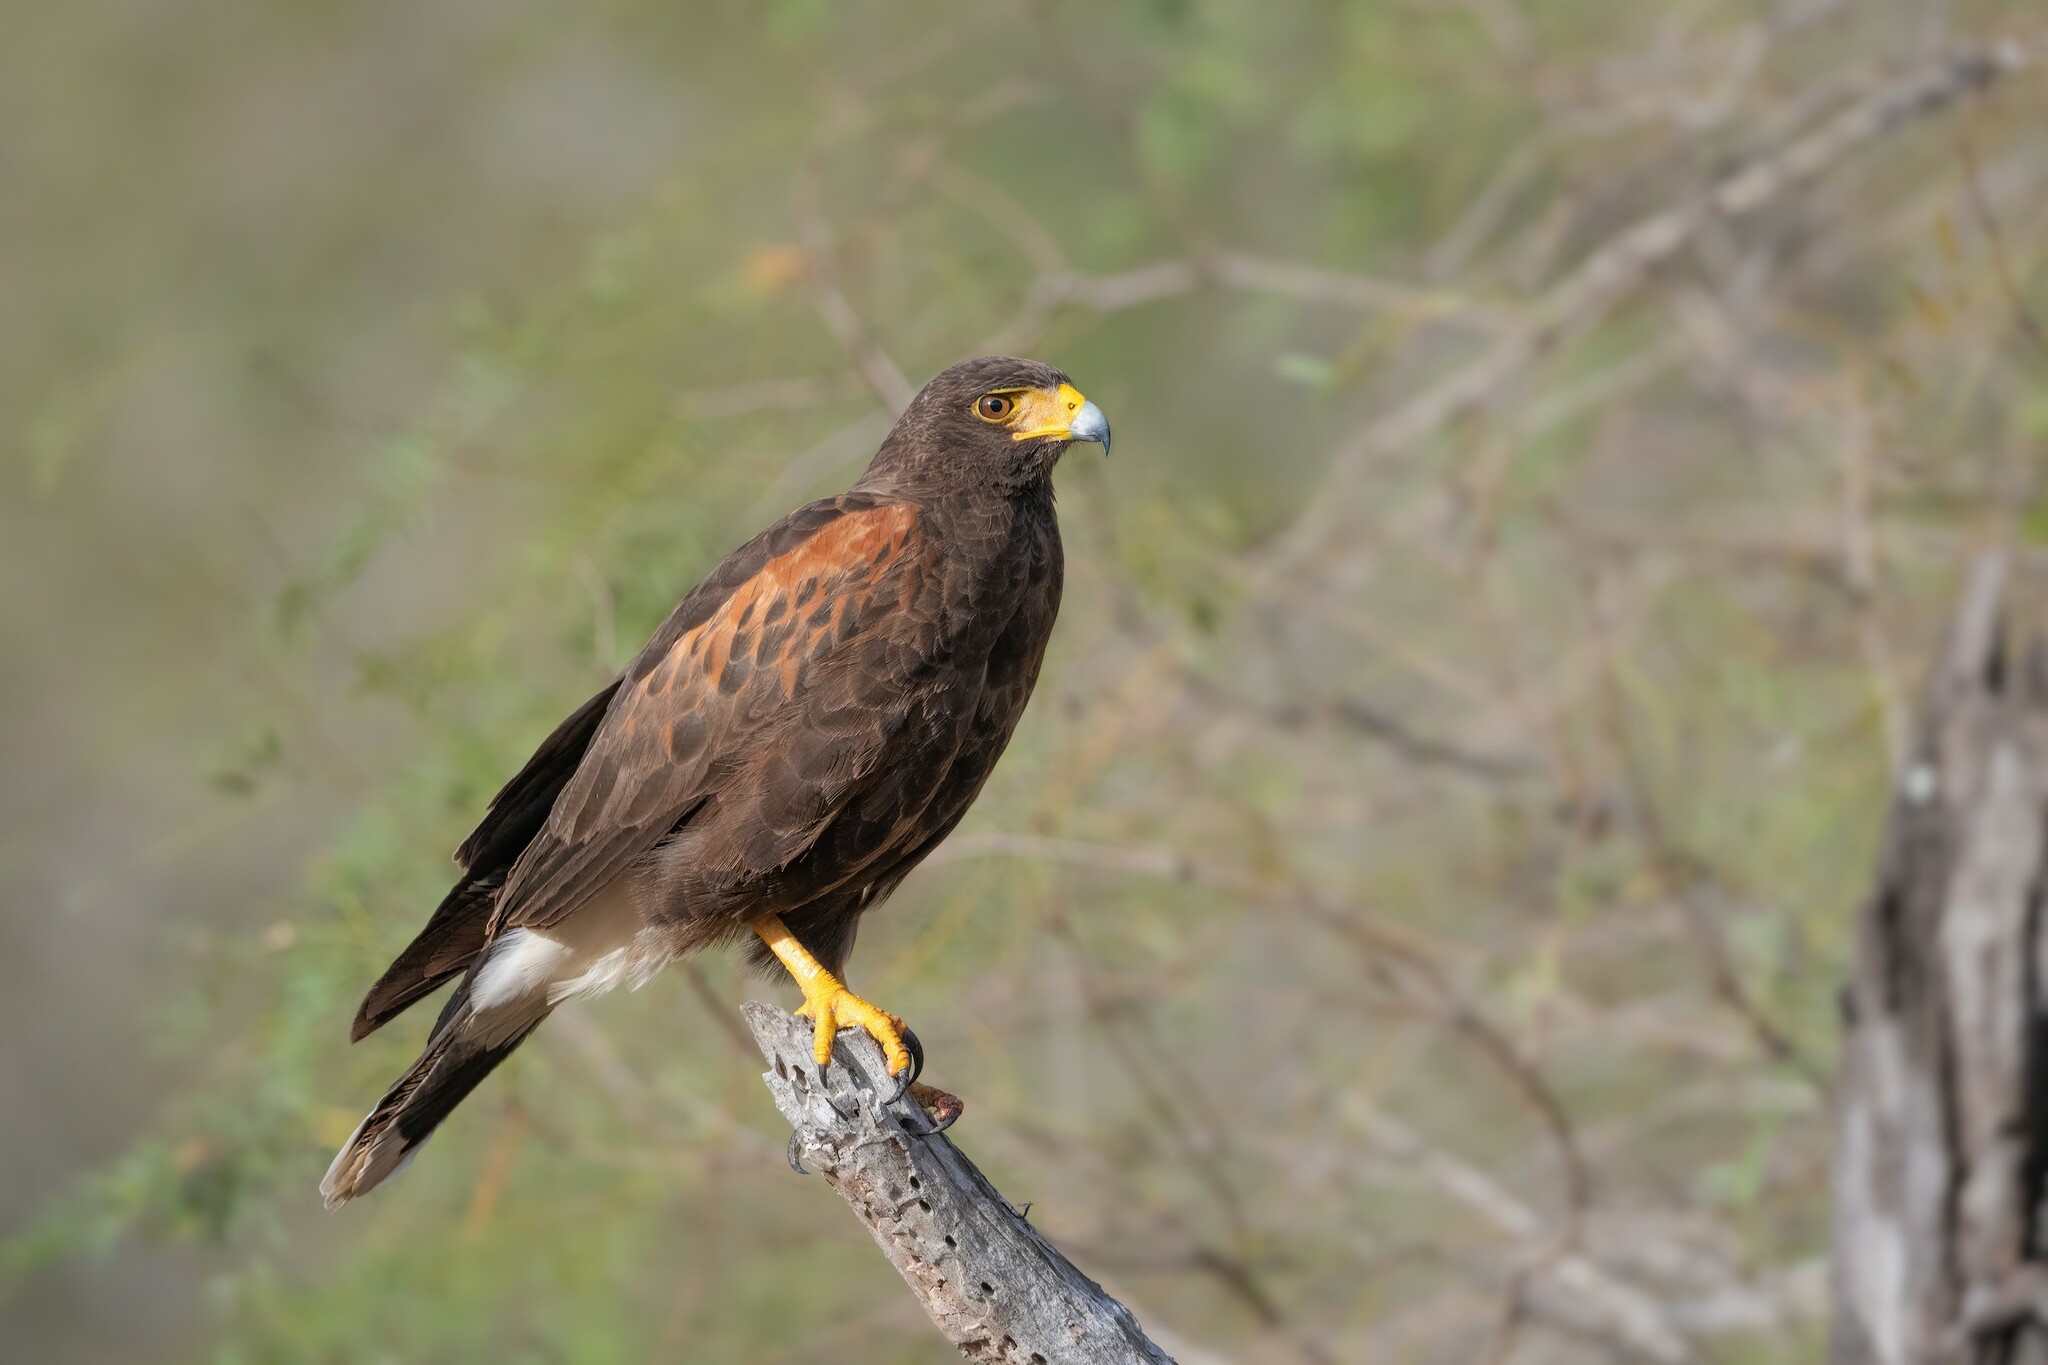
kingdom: Animalia
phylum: Chordata
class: Aves
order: Accipitriformes
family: Accipitridae
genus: Parabuteo
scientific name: Parabuteo unicinctus
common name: Harris's hawk
